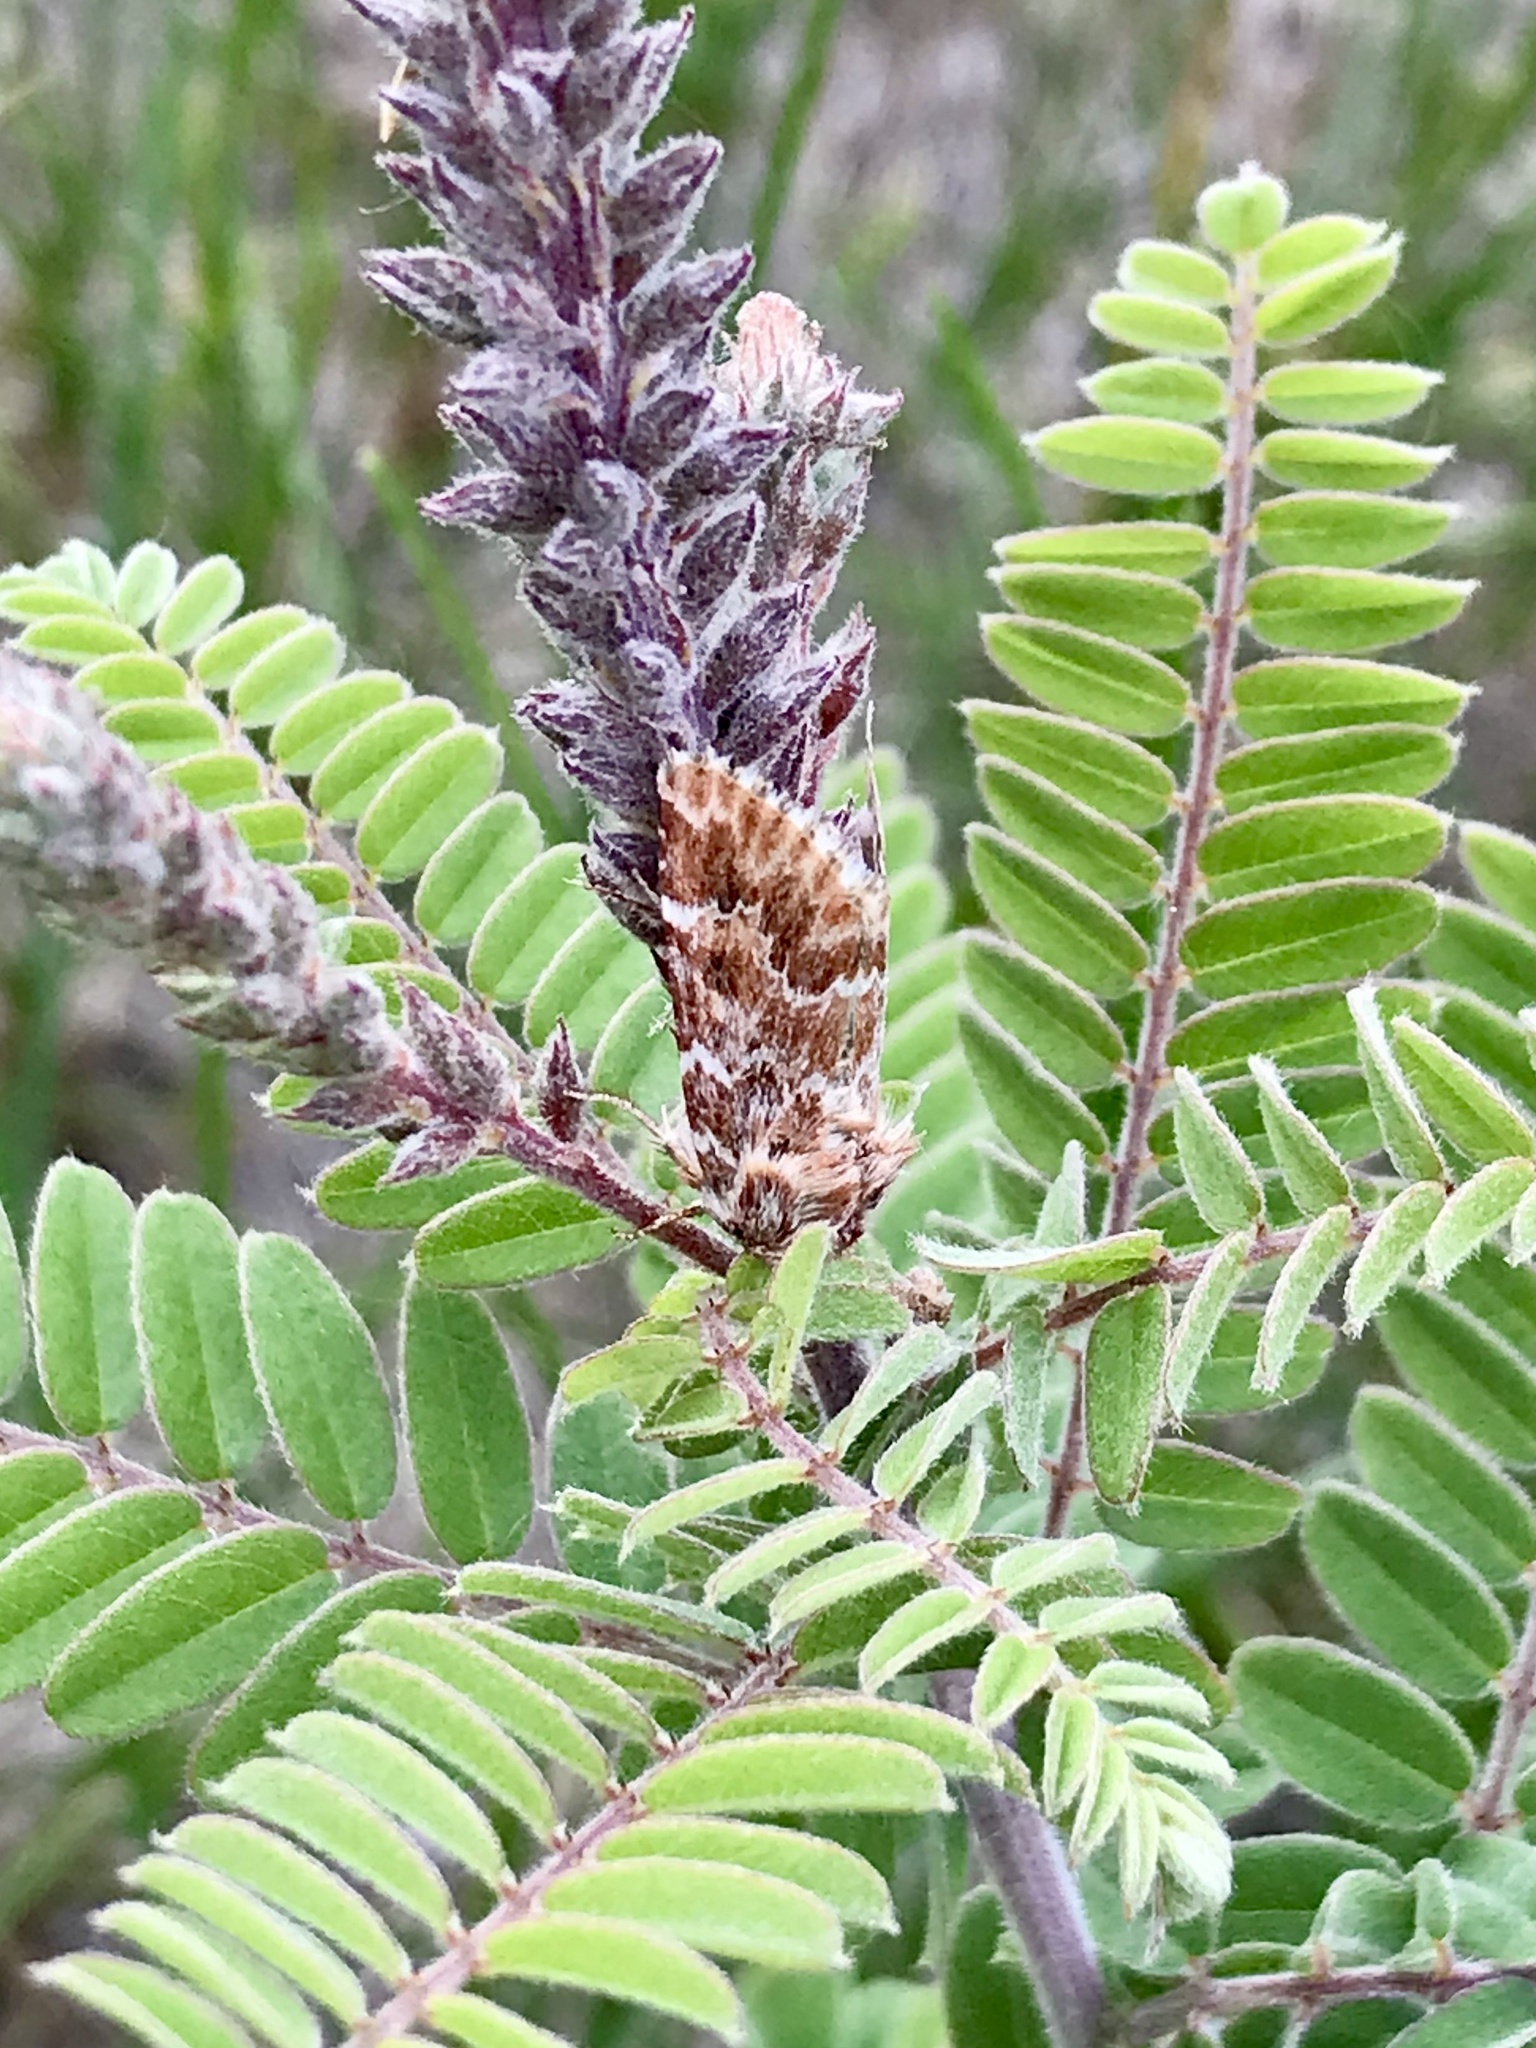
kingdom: Animalia
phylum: Arthropoda
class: Insecta
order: Lepidoptera
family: Noctuidae
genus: Schinia
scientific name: Schinia lucens
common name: Leadplant flower moth
